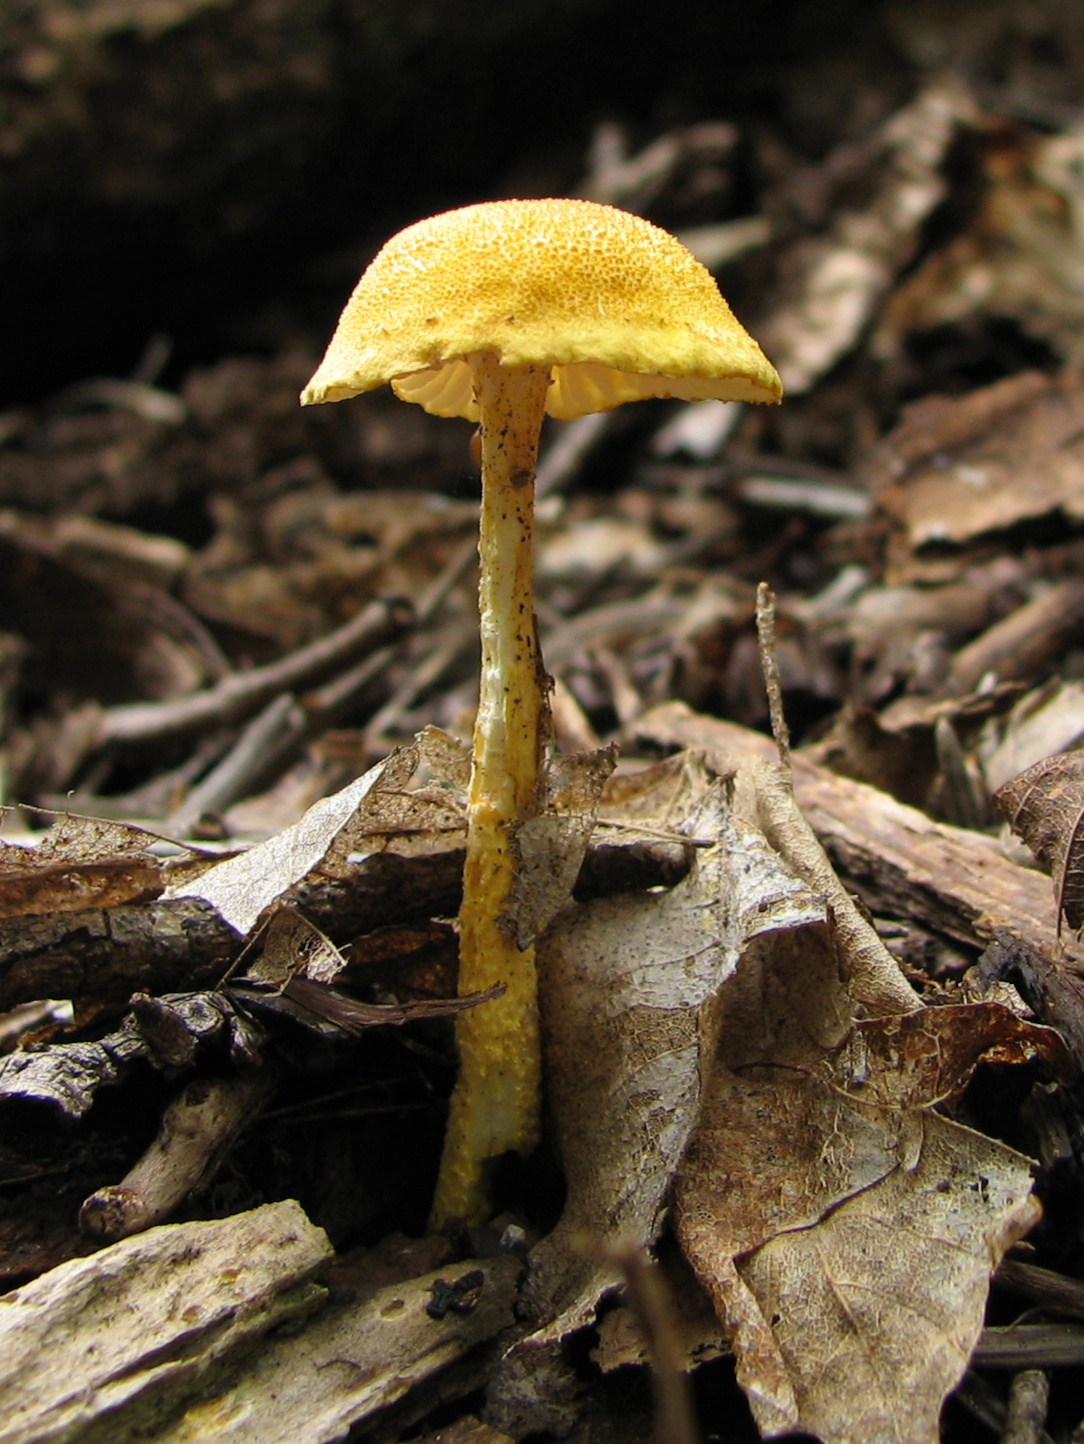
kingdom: Fungi
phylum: Basidiomycota
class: Agaricomycetes
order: Agaricales
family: Physalacriaceae
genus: Cyptotrama
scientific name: Cyptotrama chrysopepla
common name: Golden coincap
